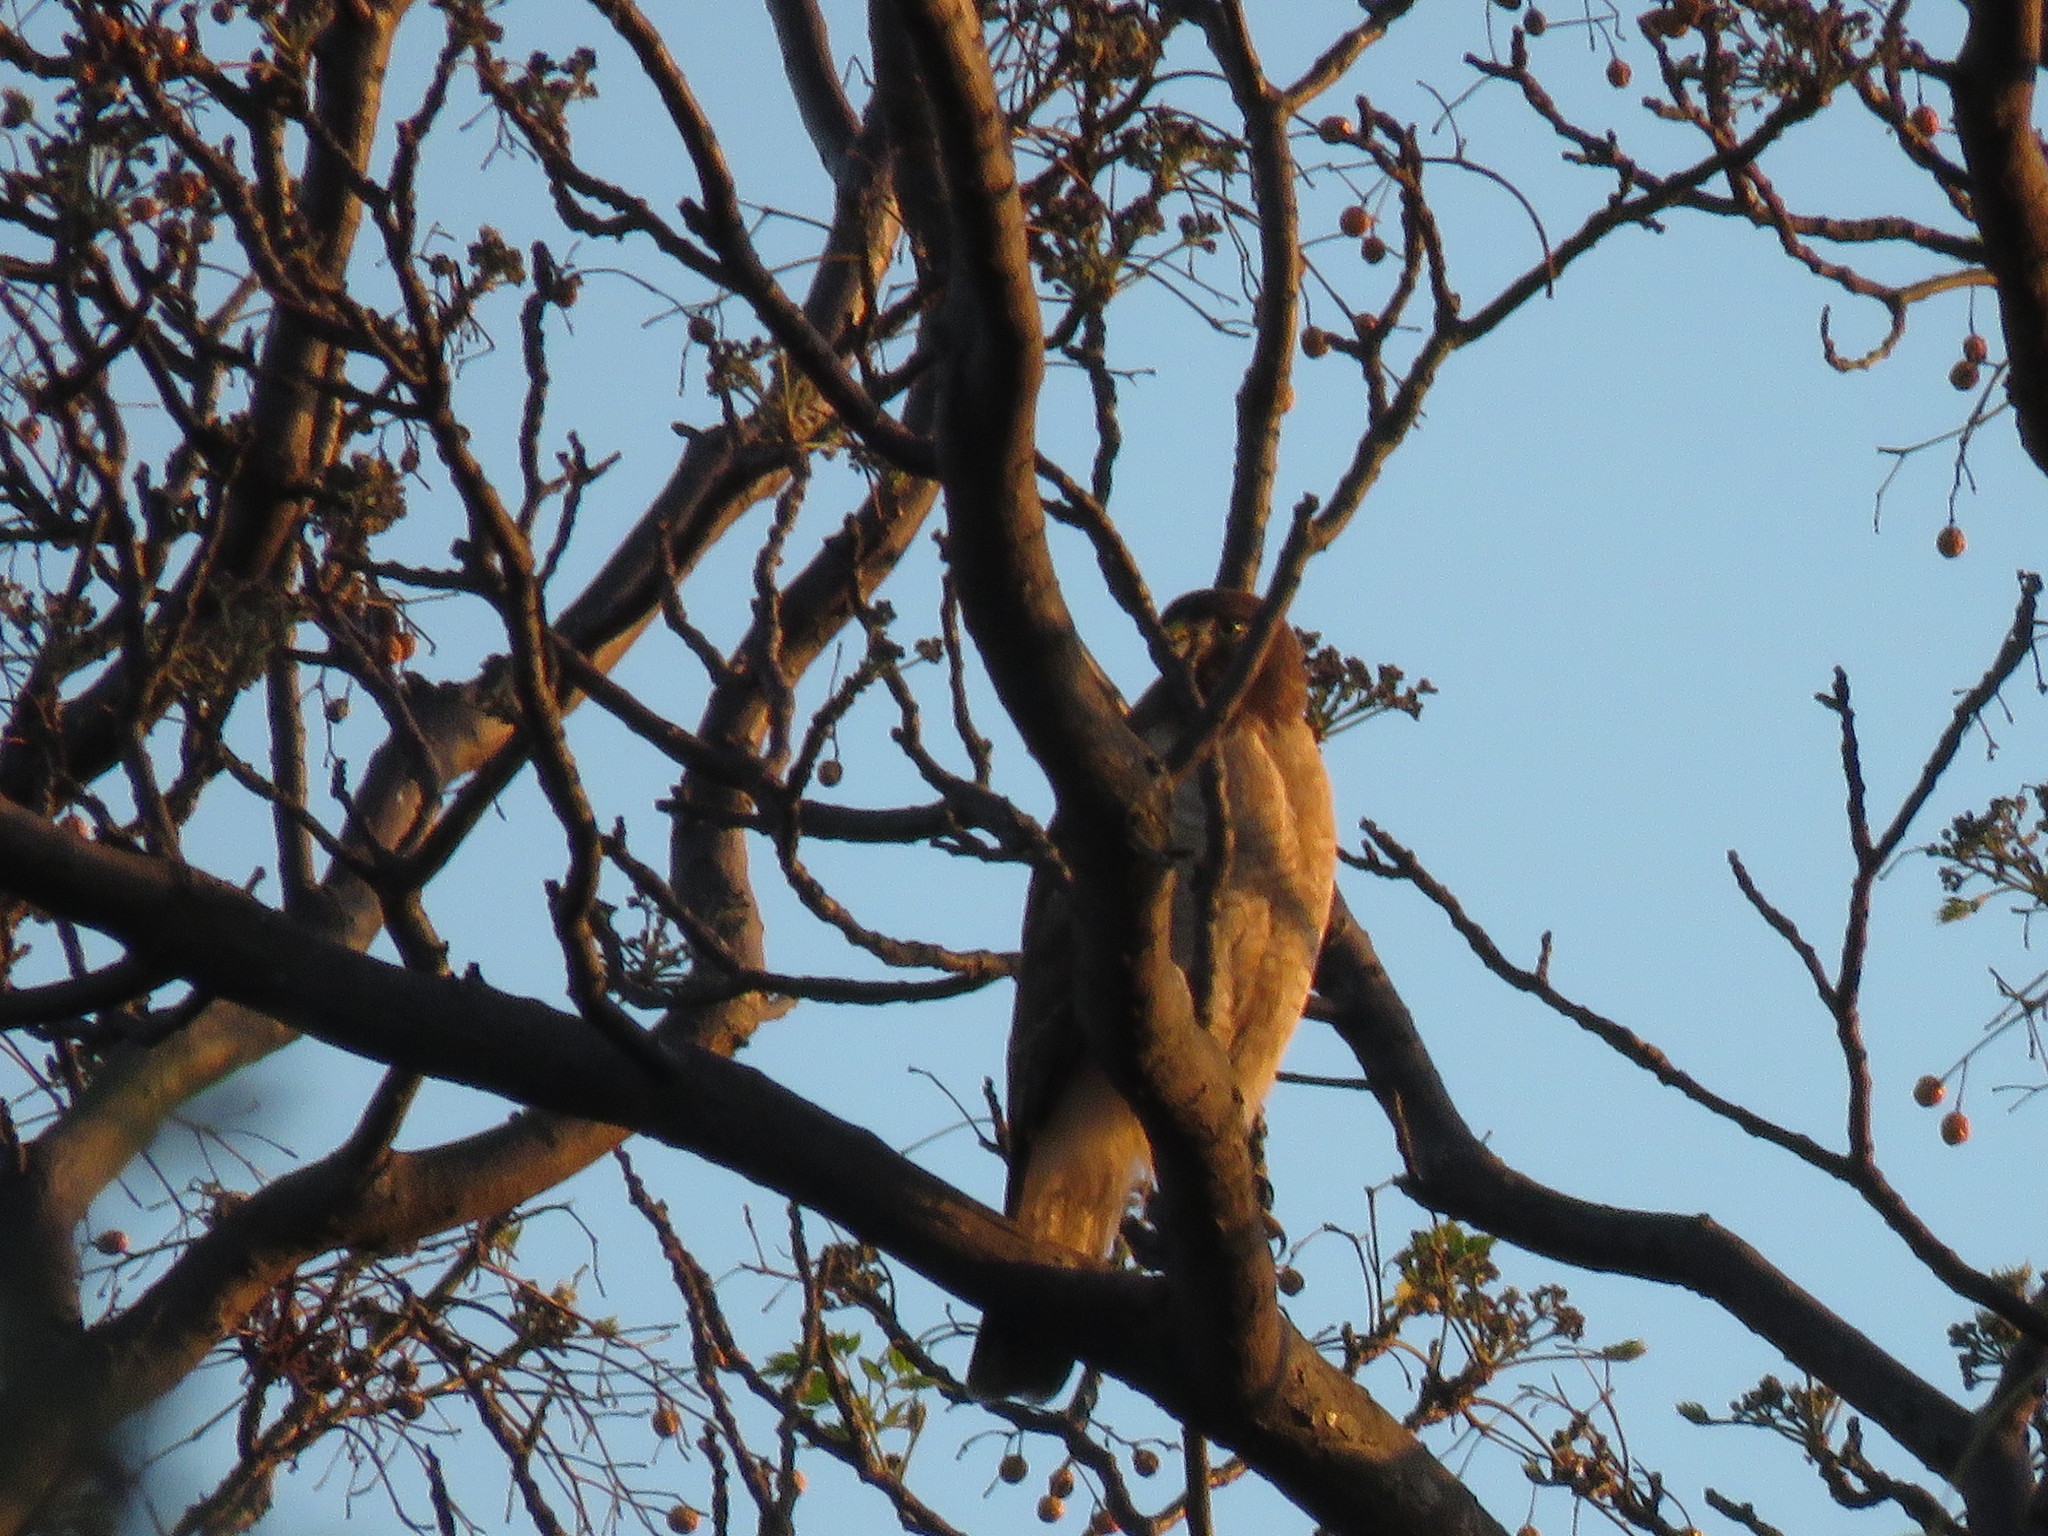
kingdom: Animalia
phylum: Chordata
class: Aves
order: Accipitriformes
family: Accipitridae
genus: Rupornis
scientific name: Rupornis magnirostris
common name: Roadside hawk
